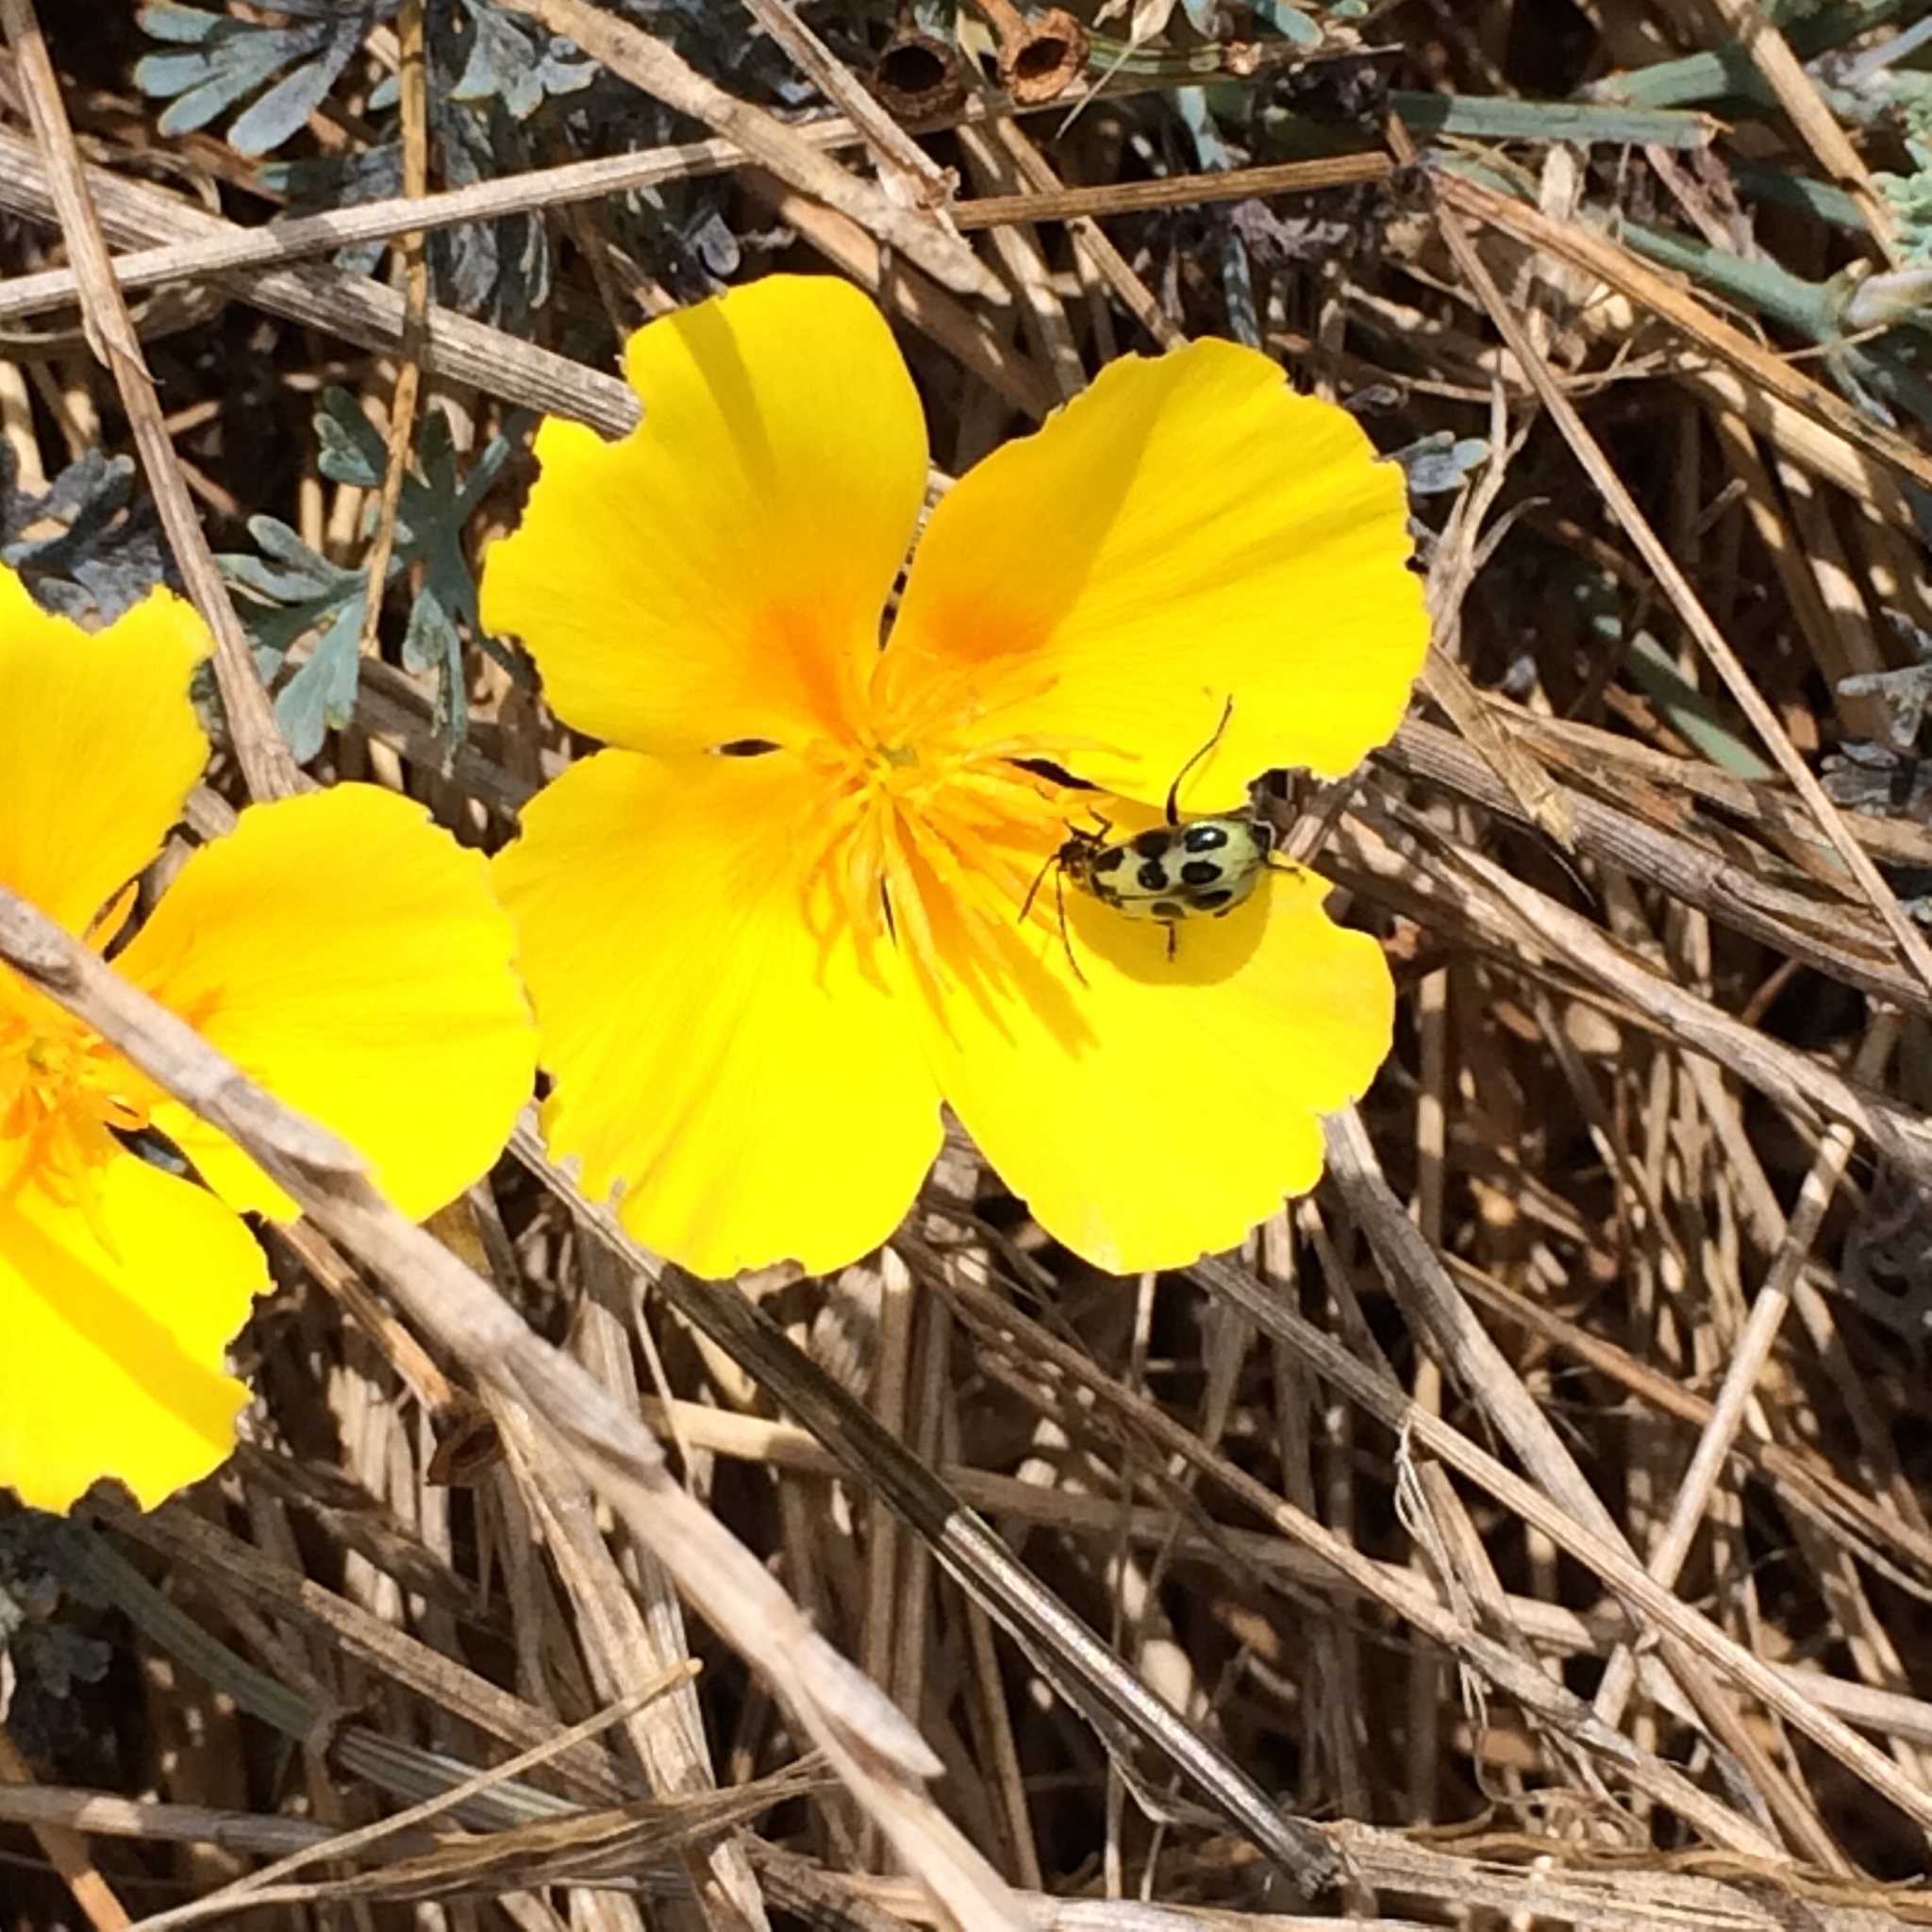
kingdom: Animalia
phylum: Arthropoda
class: Insecta
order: Coleoptera
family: Chrysomelidae
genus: Diabrotica
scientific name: Diabrotica undecimpunctata
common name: Spotted cucumber beetle
